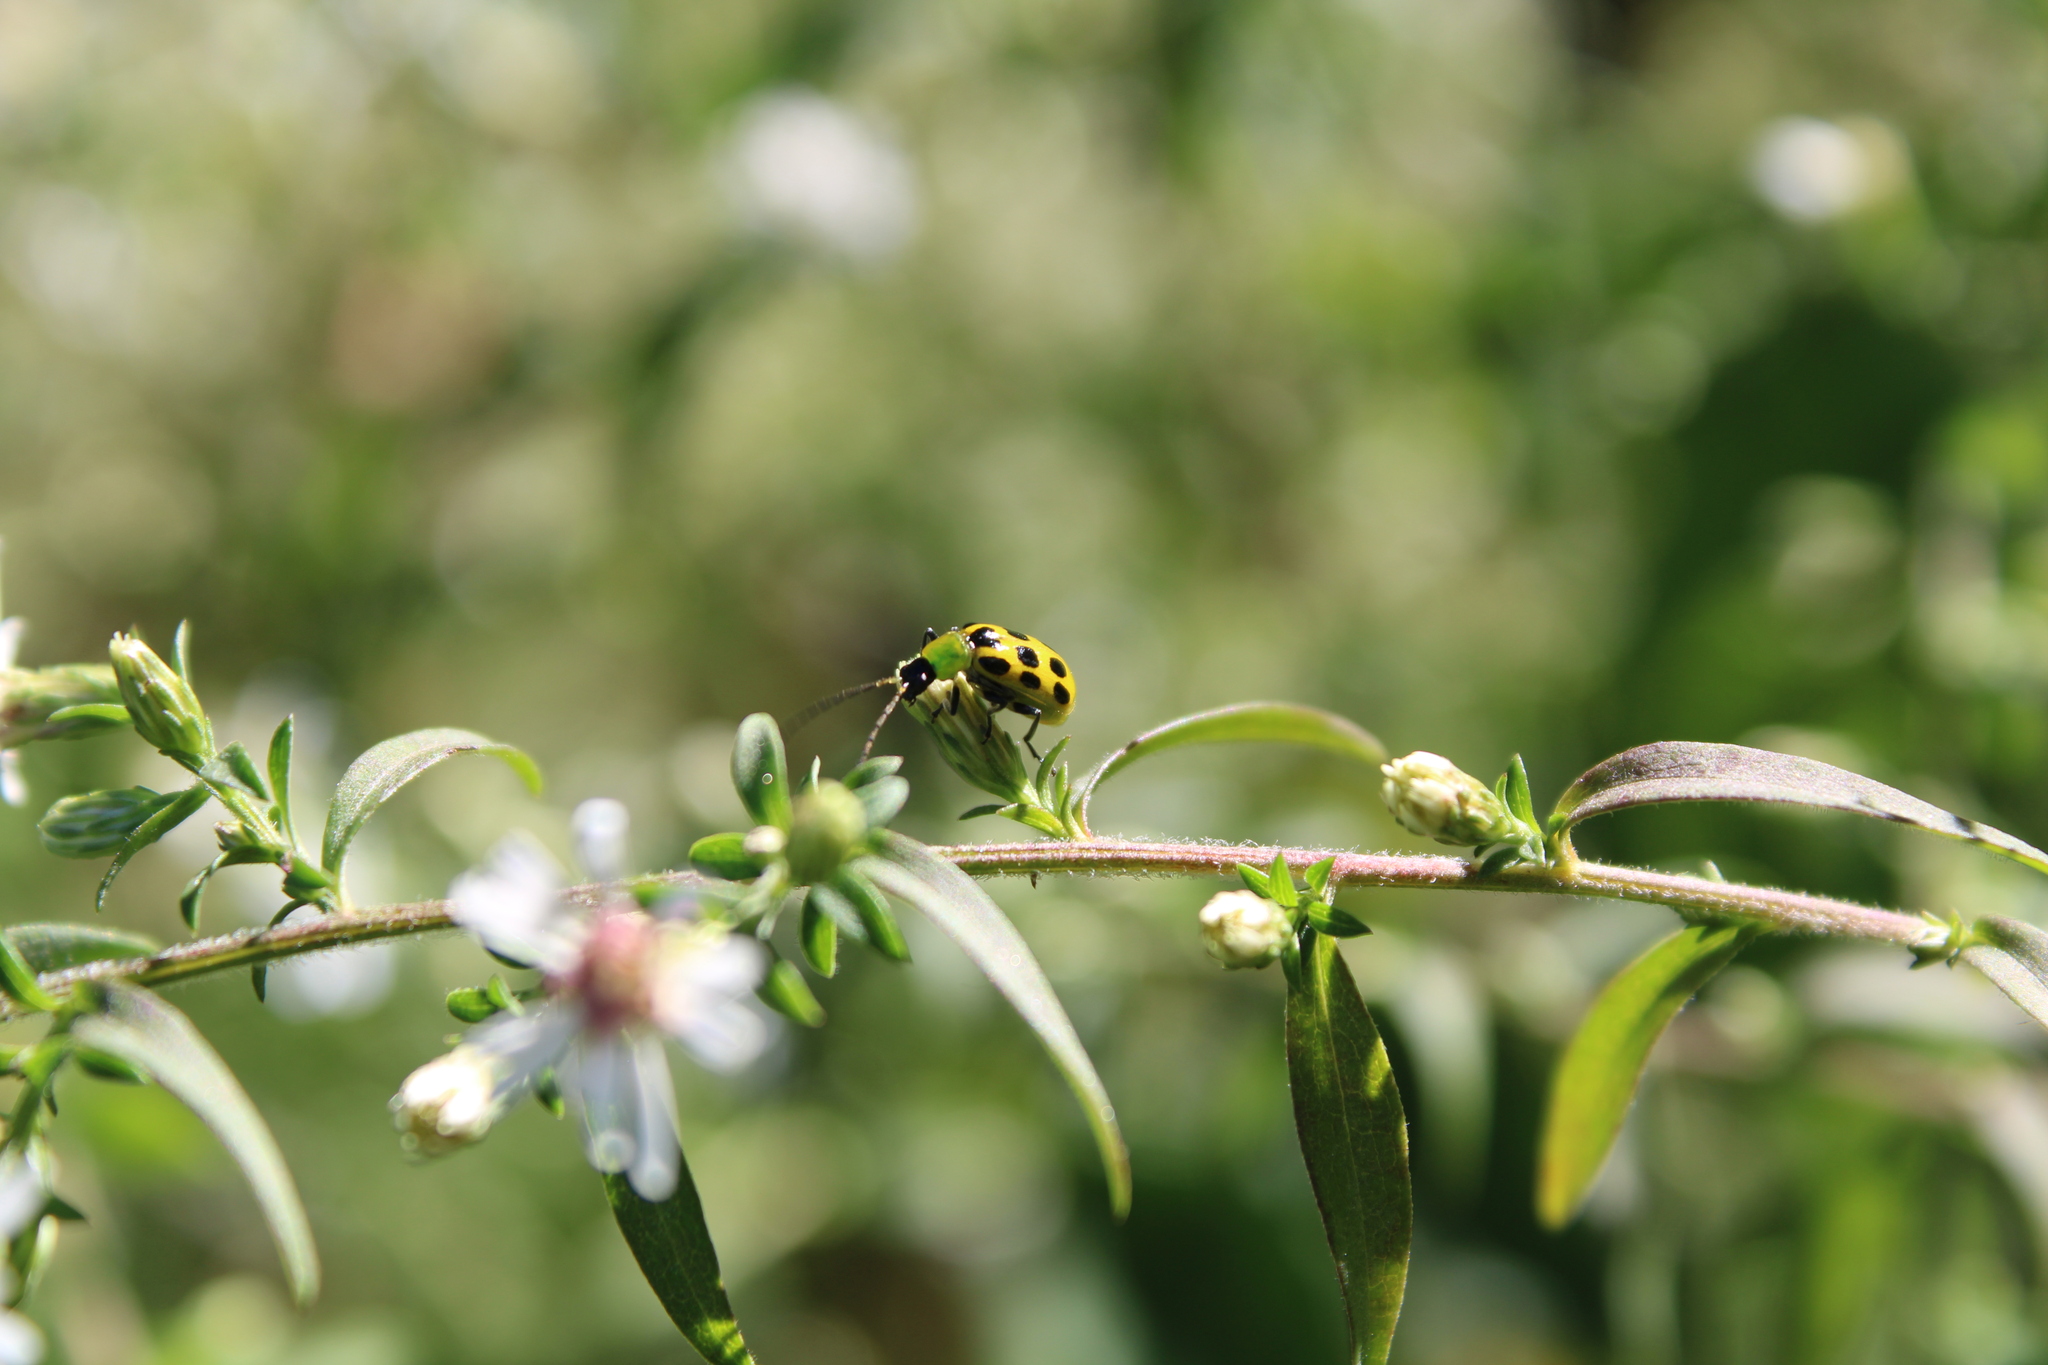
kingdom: Animalia
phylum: Arthropoda
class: Insecta
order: Coleoptera
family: Chrysomelidae
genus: Diabrotica
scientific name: Diabrotica undecimpunctata
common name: Spotted cucumber beetle
